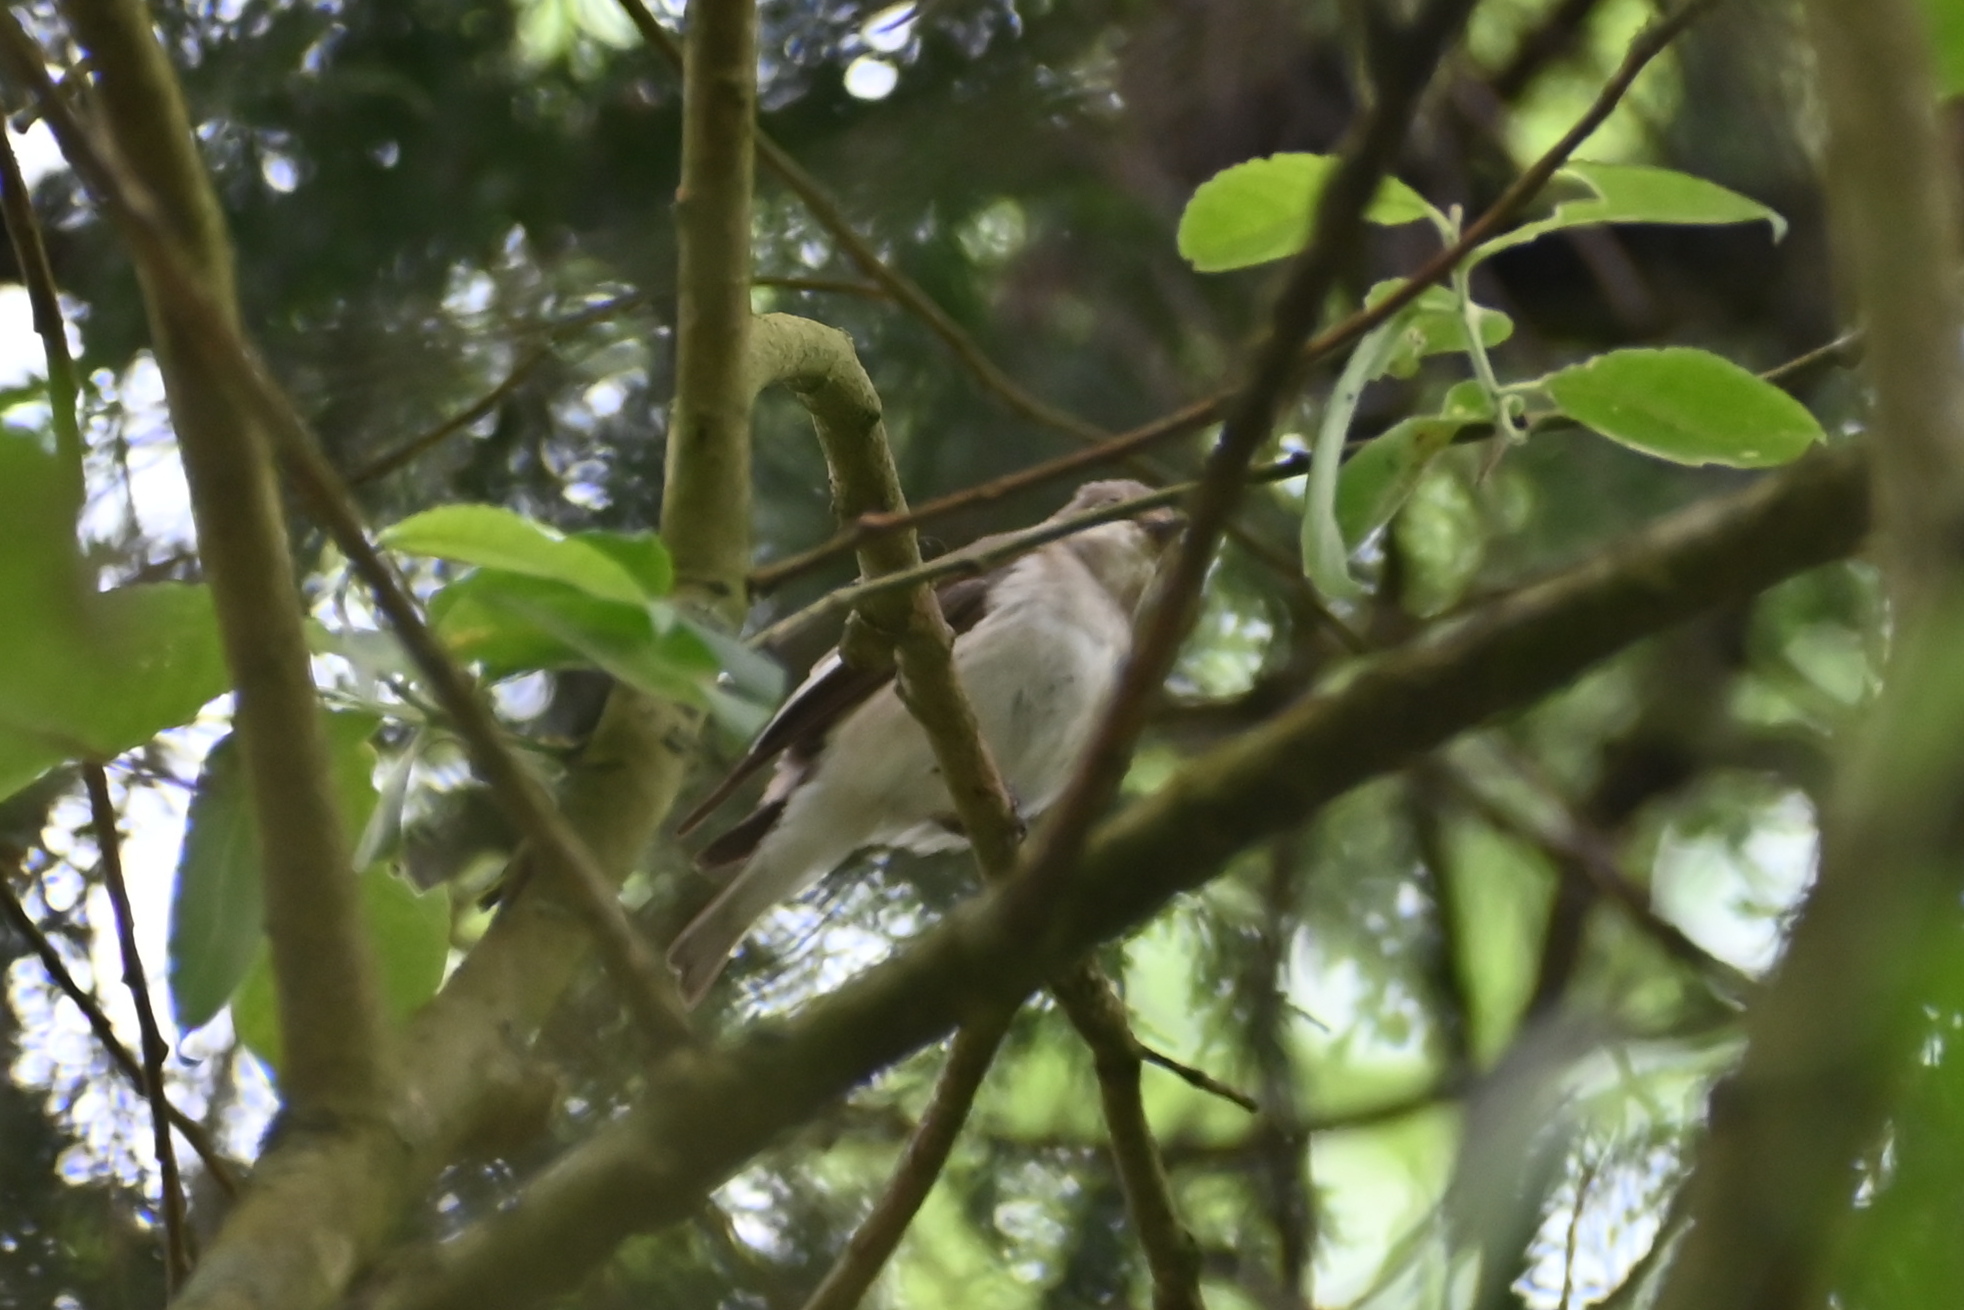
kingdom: Animalia
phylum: Chordata
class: Aves
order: Passeriformes
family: Muscicapidae
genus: Ficedula
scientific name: Ficedula hypoleuca
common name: European pied flycatcher
